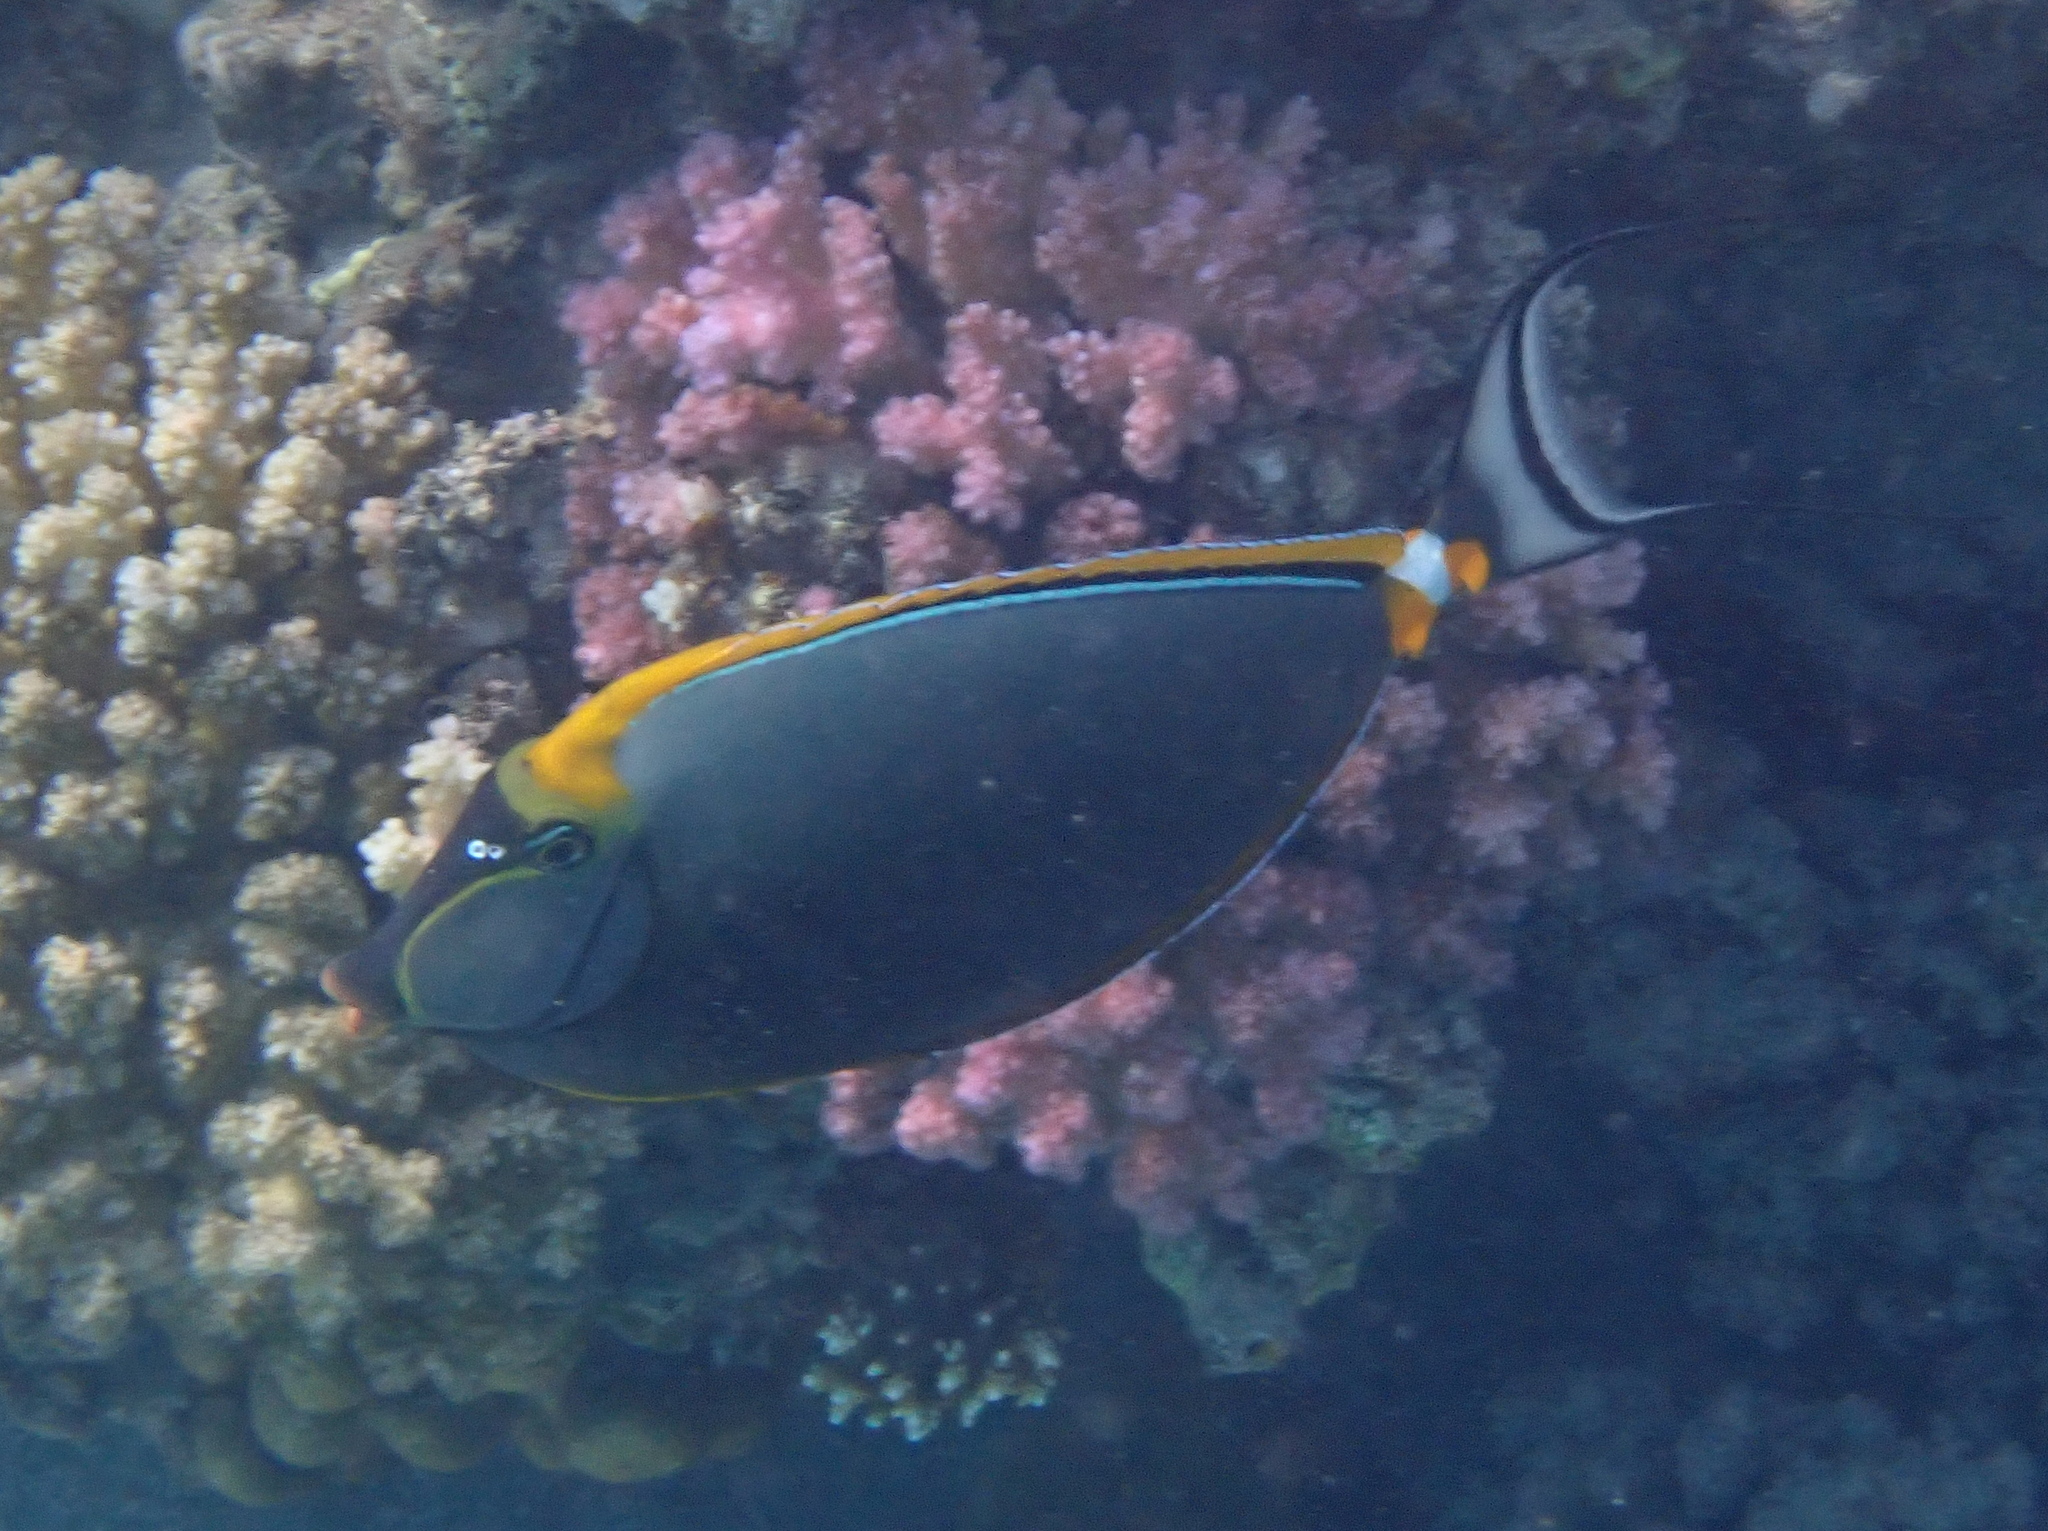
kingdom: Animalia
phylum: Chordata
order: Perciformes
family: Acanthuridae
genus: Naso
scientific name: Naso elegans
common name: Orangespine unicornfish
